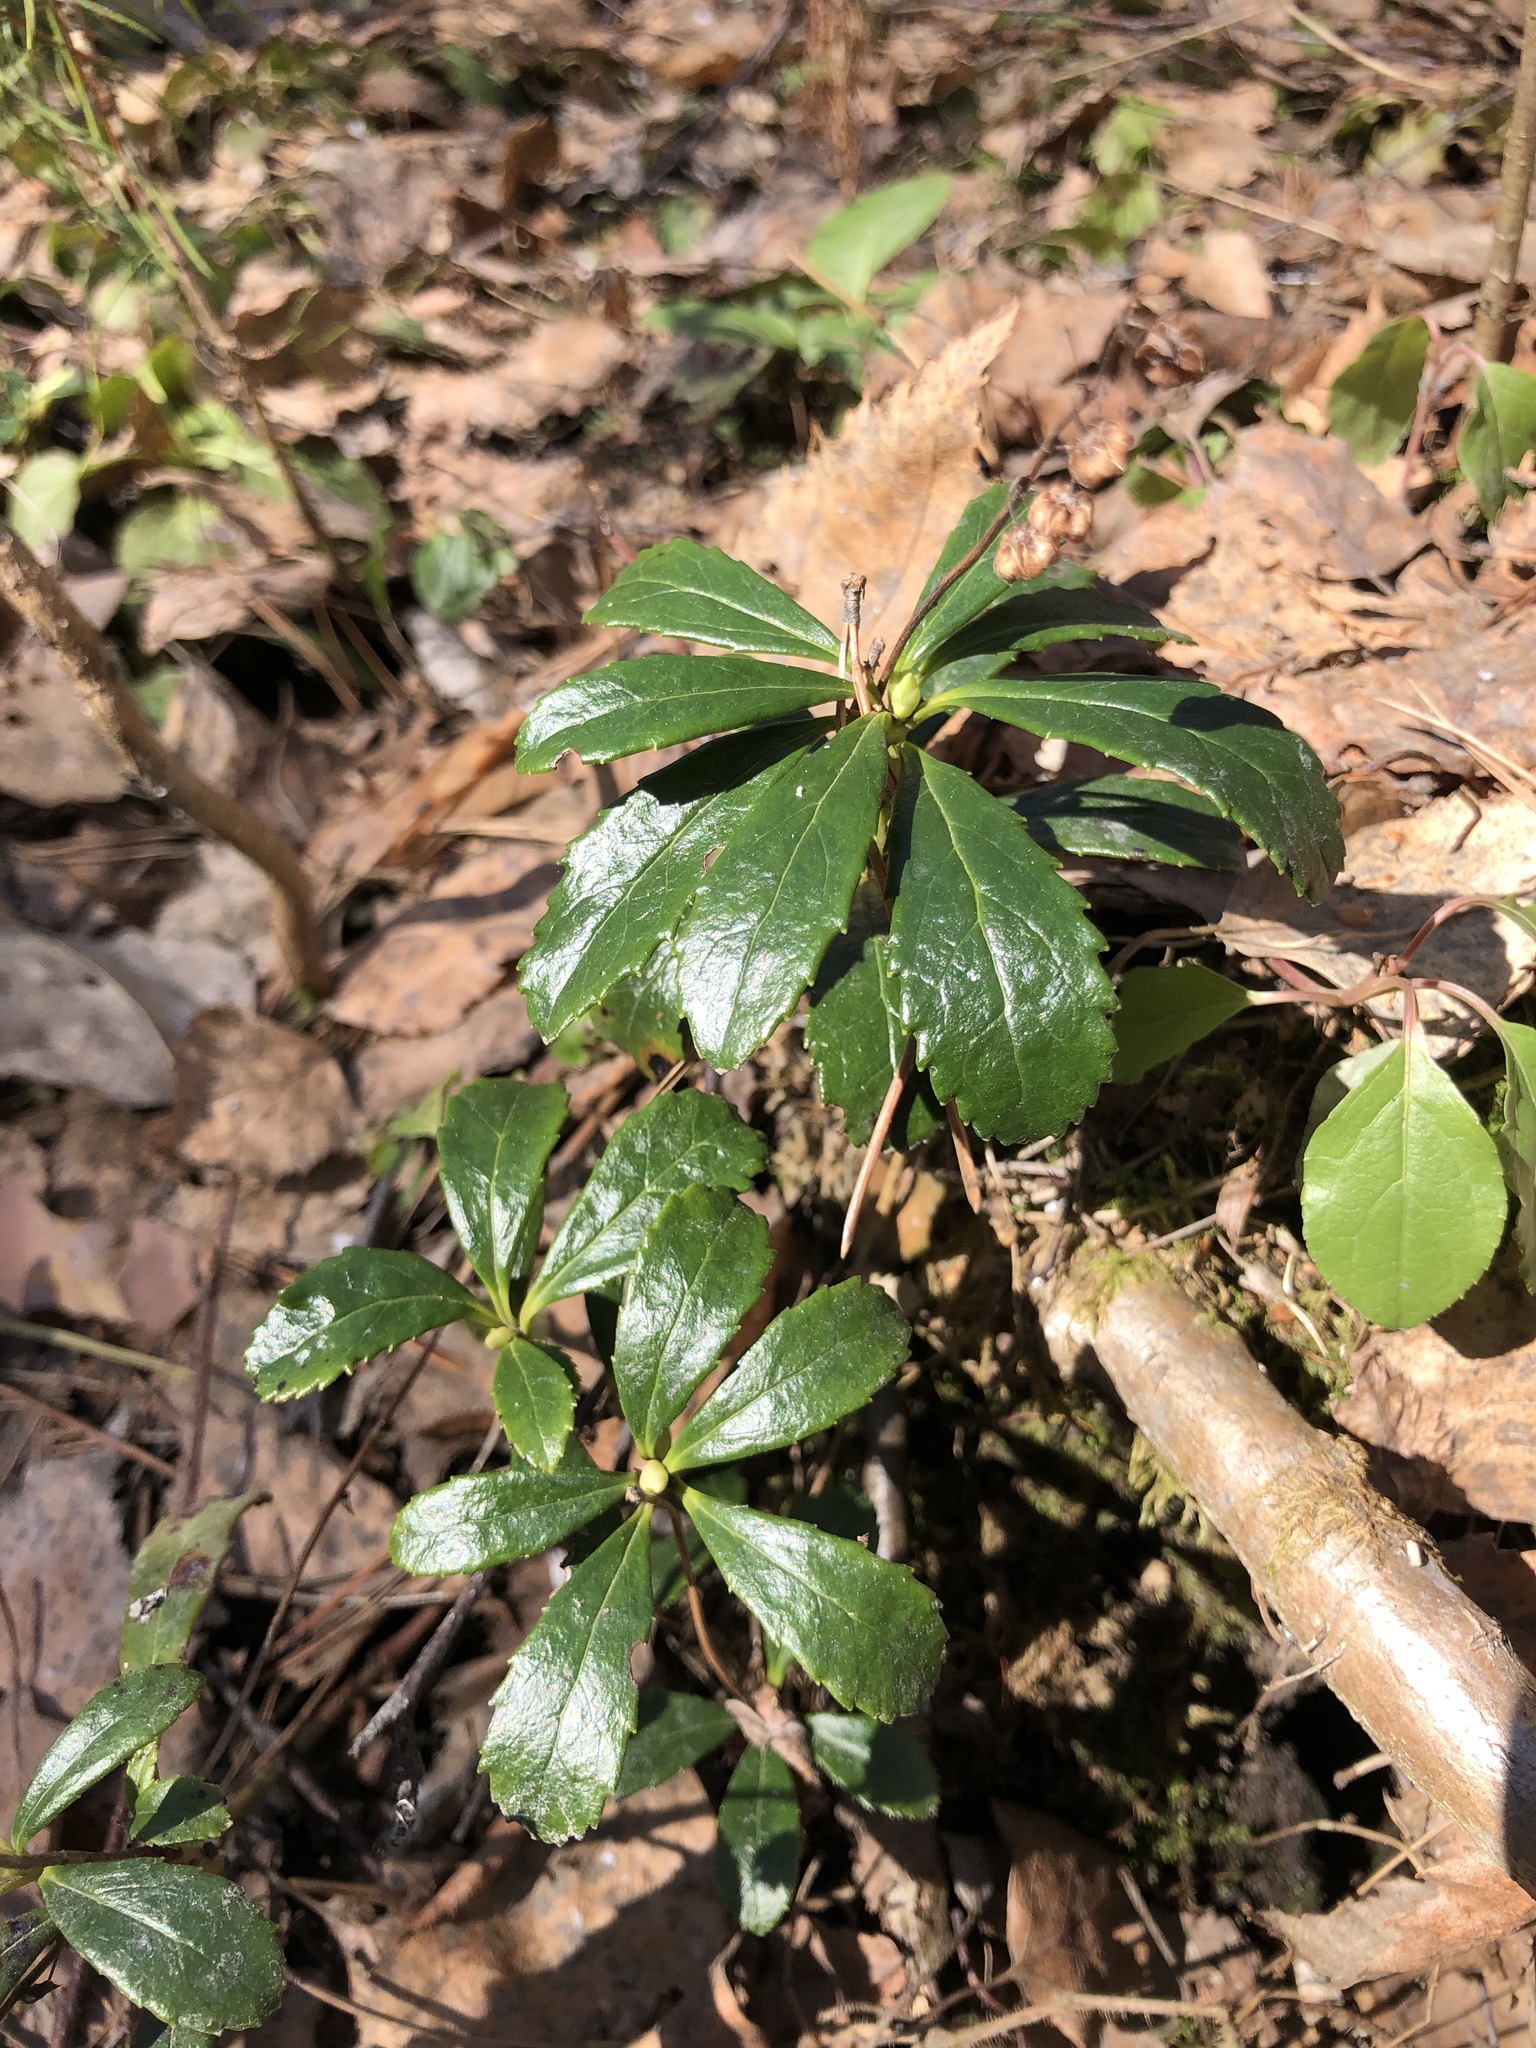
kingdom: Plantae
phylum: Tracheophyta
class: Magnoliopsida
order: Ericales
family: Ericaceae
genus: Chimaphila
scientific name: Chimaphila umbellata
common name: Pipsissewa
